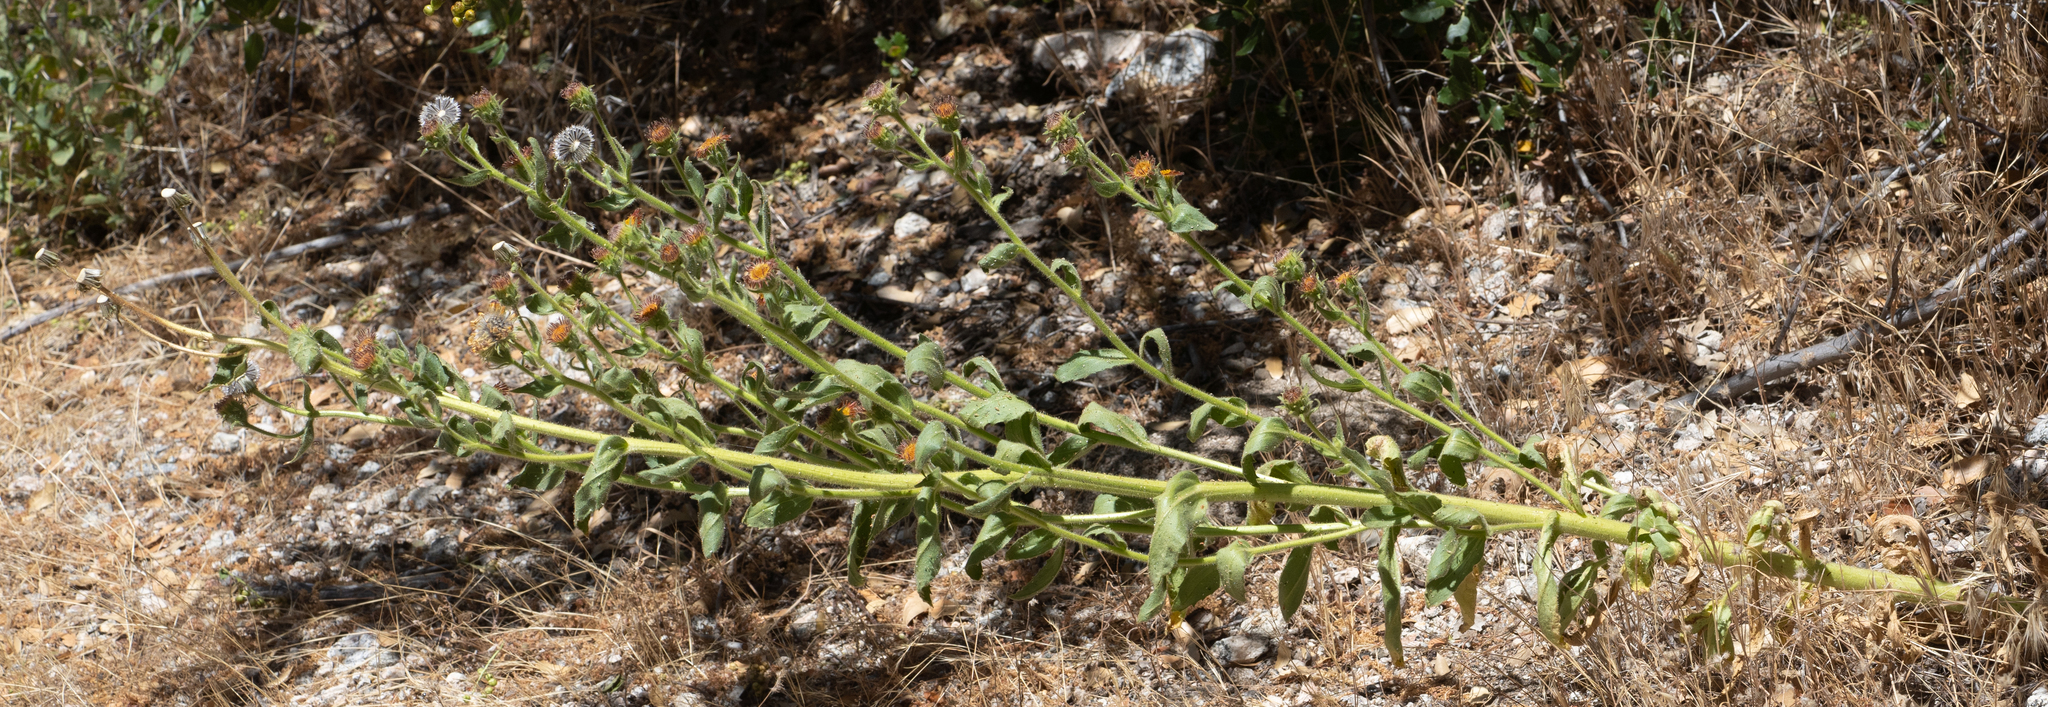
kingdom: Plantae
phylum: Tracheophyta
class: Magnoliopsida
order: Asterales
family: Asteraceae
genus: Hulsea
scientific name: Hulsea heterochroma
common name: Redray alpinegold
